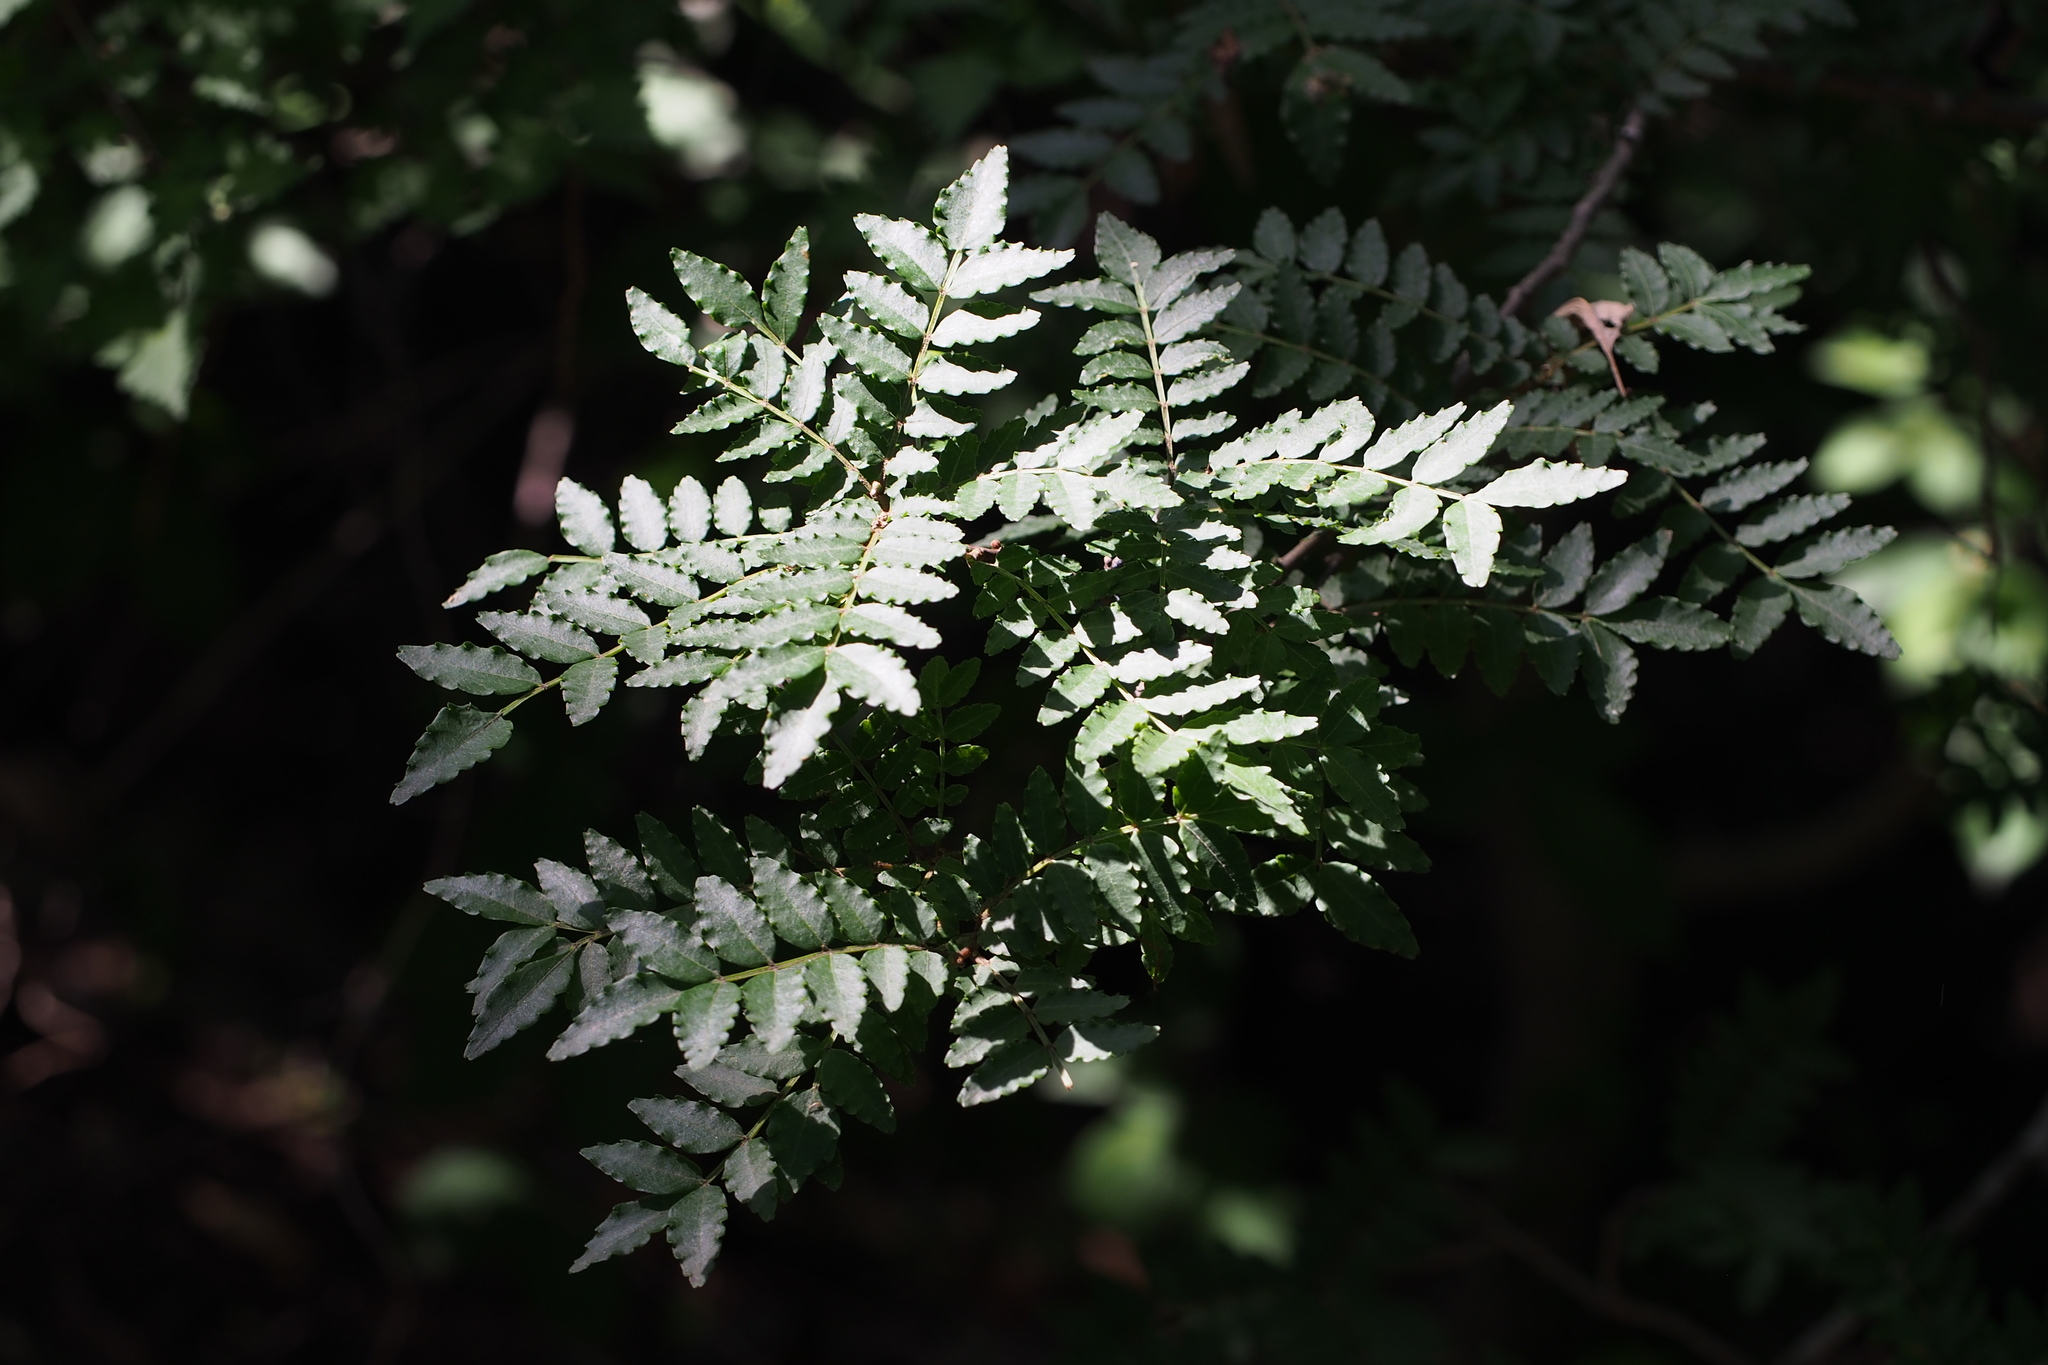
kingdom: Plantae
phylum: Tracheophyta
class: Magnoliopsida
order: Sapindales
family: Rutaceae
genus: Zanthoxylum
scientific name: Zanthoxylum piperitum
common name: Japanese-pepper
